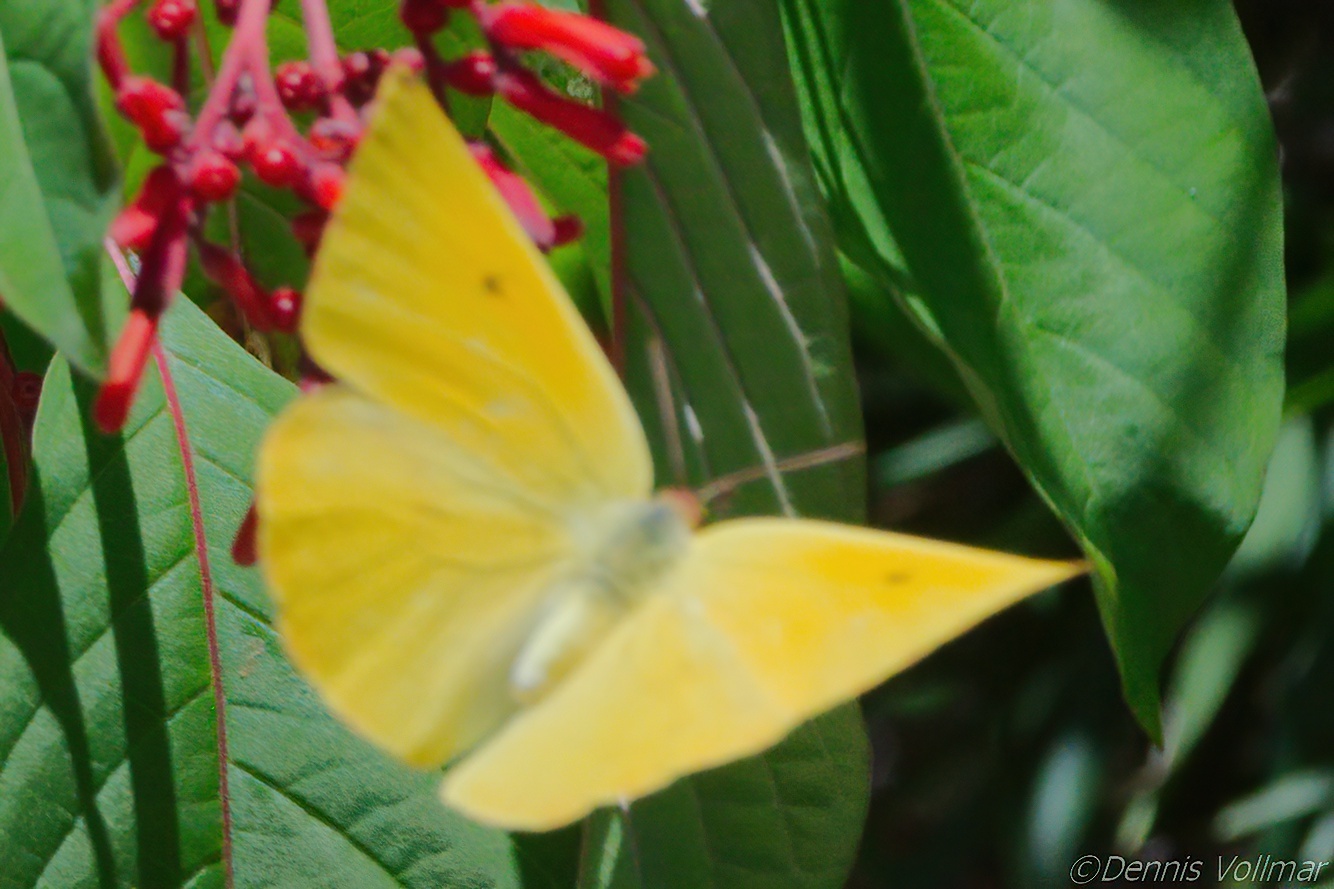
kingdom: Animalia
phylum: Arthropoda
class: Insecta
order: Lepidoptera
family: Pieridae
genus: Phoebis
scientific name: Phoebis agarithe
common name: Large orange sulphur
